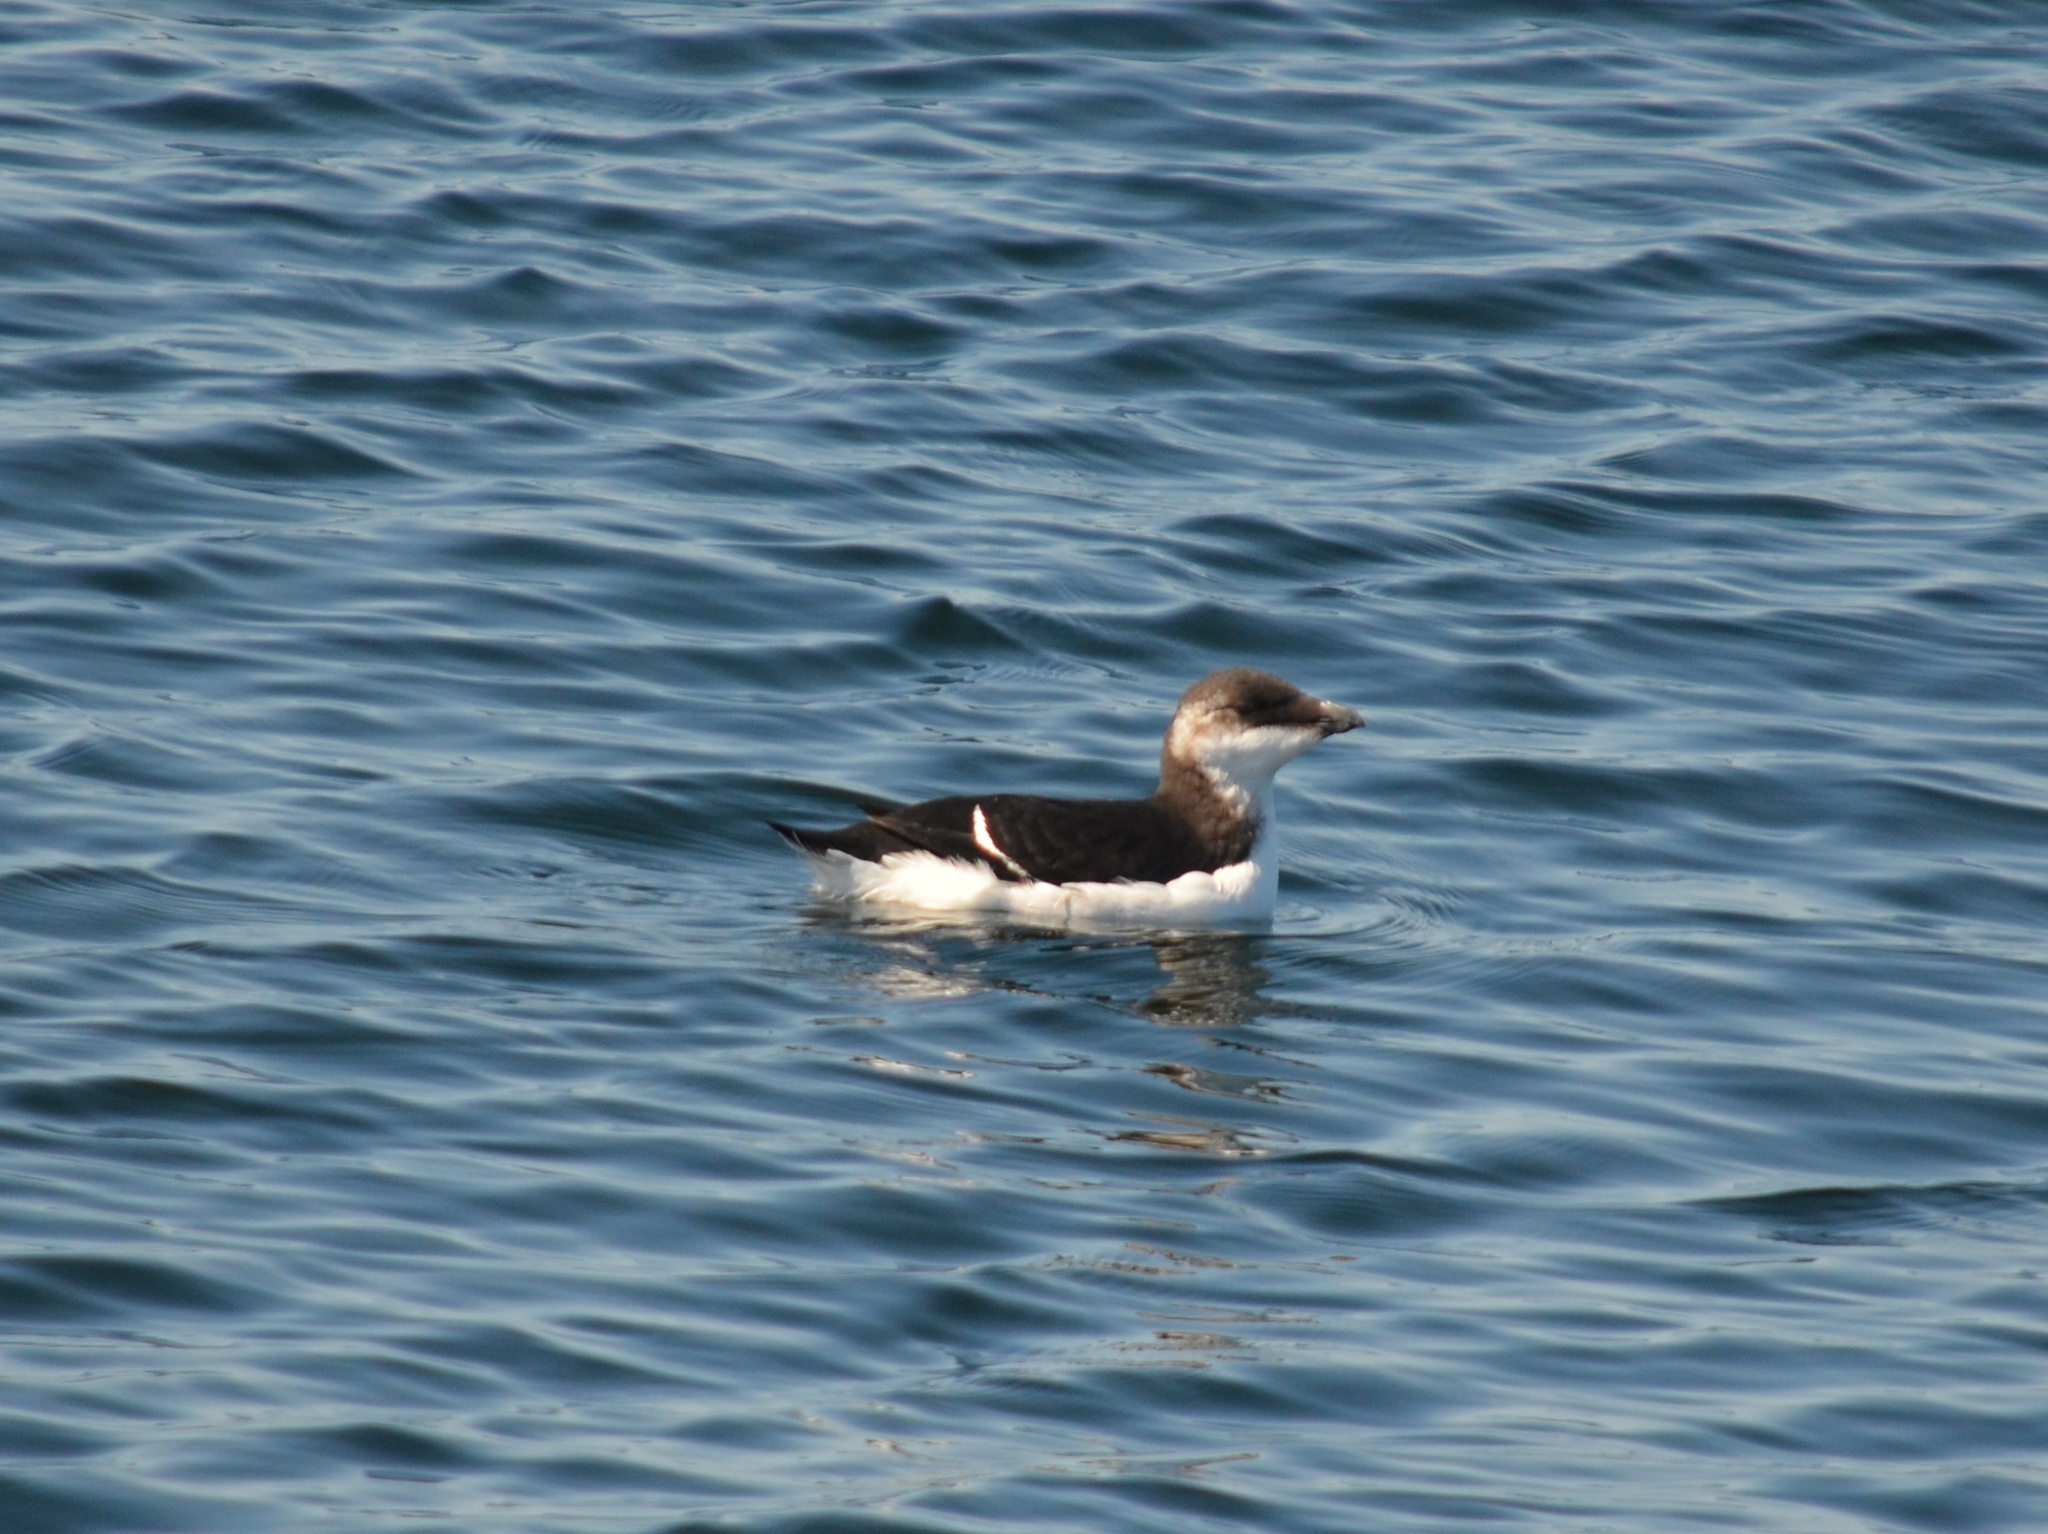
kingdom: Animalia
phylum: Chordata
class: Aves
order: Charadriiformes
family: Alcidae
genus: Alca
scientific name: Alca torda
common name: Razorbill
